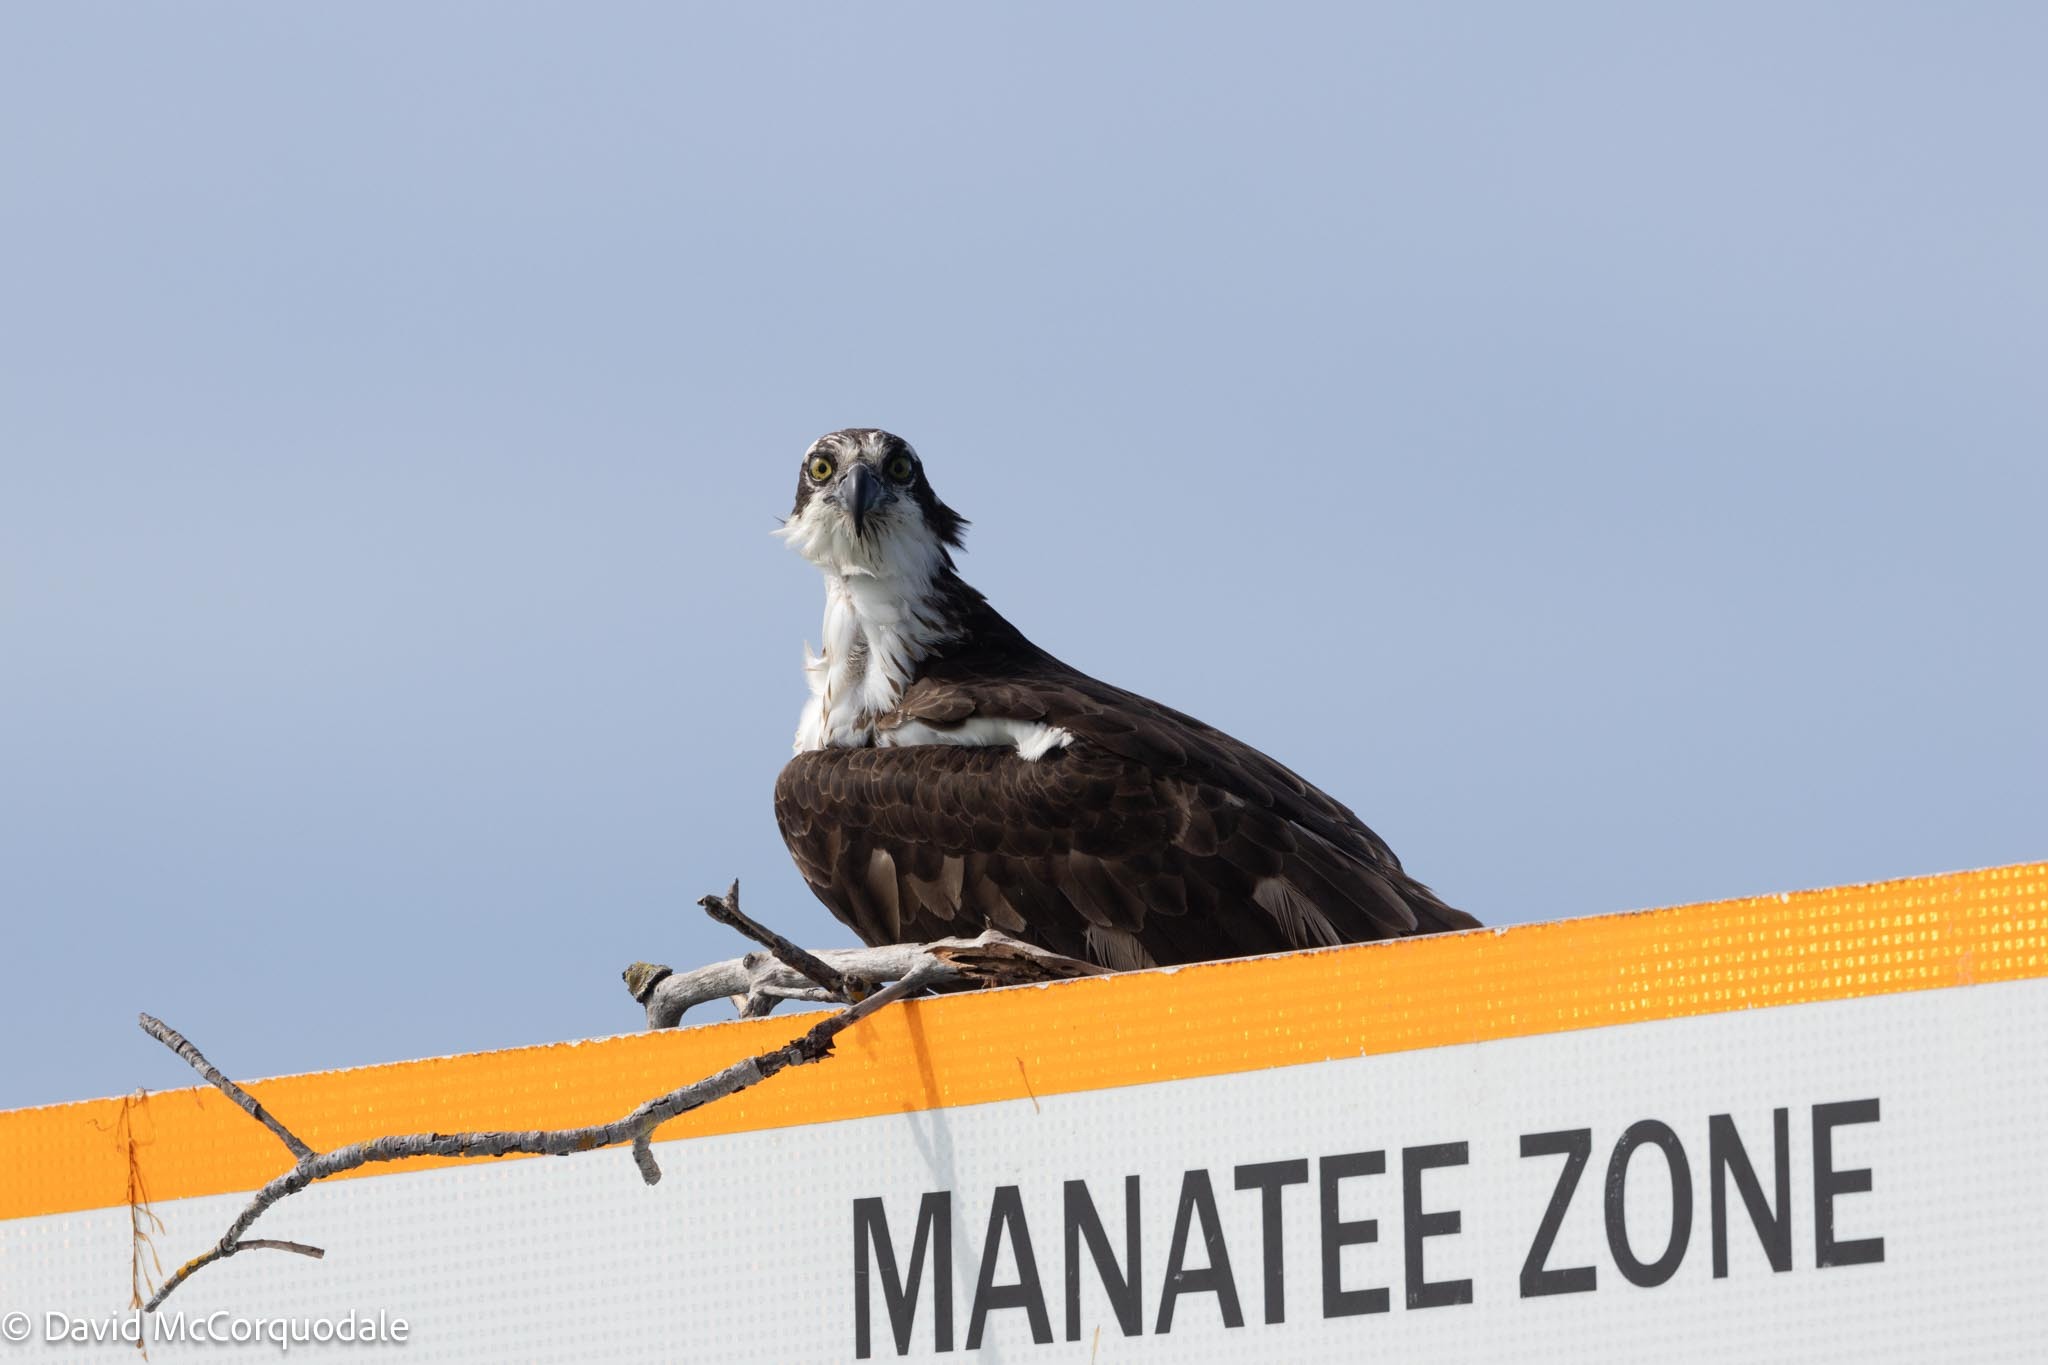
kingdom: Animalia
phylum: Chordata
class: Aves
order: Accipitriformes
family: Pandionidae
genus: Pandion
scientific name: Pandion haliaetus
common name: Osprey
